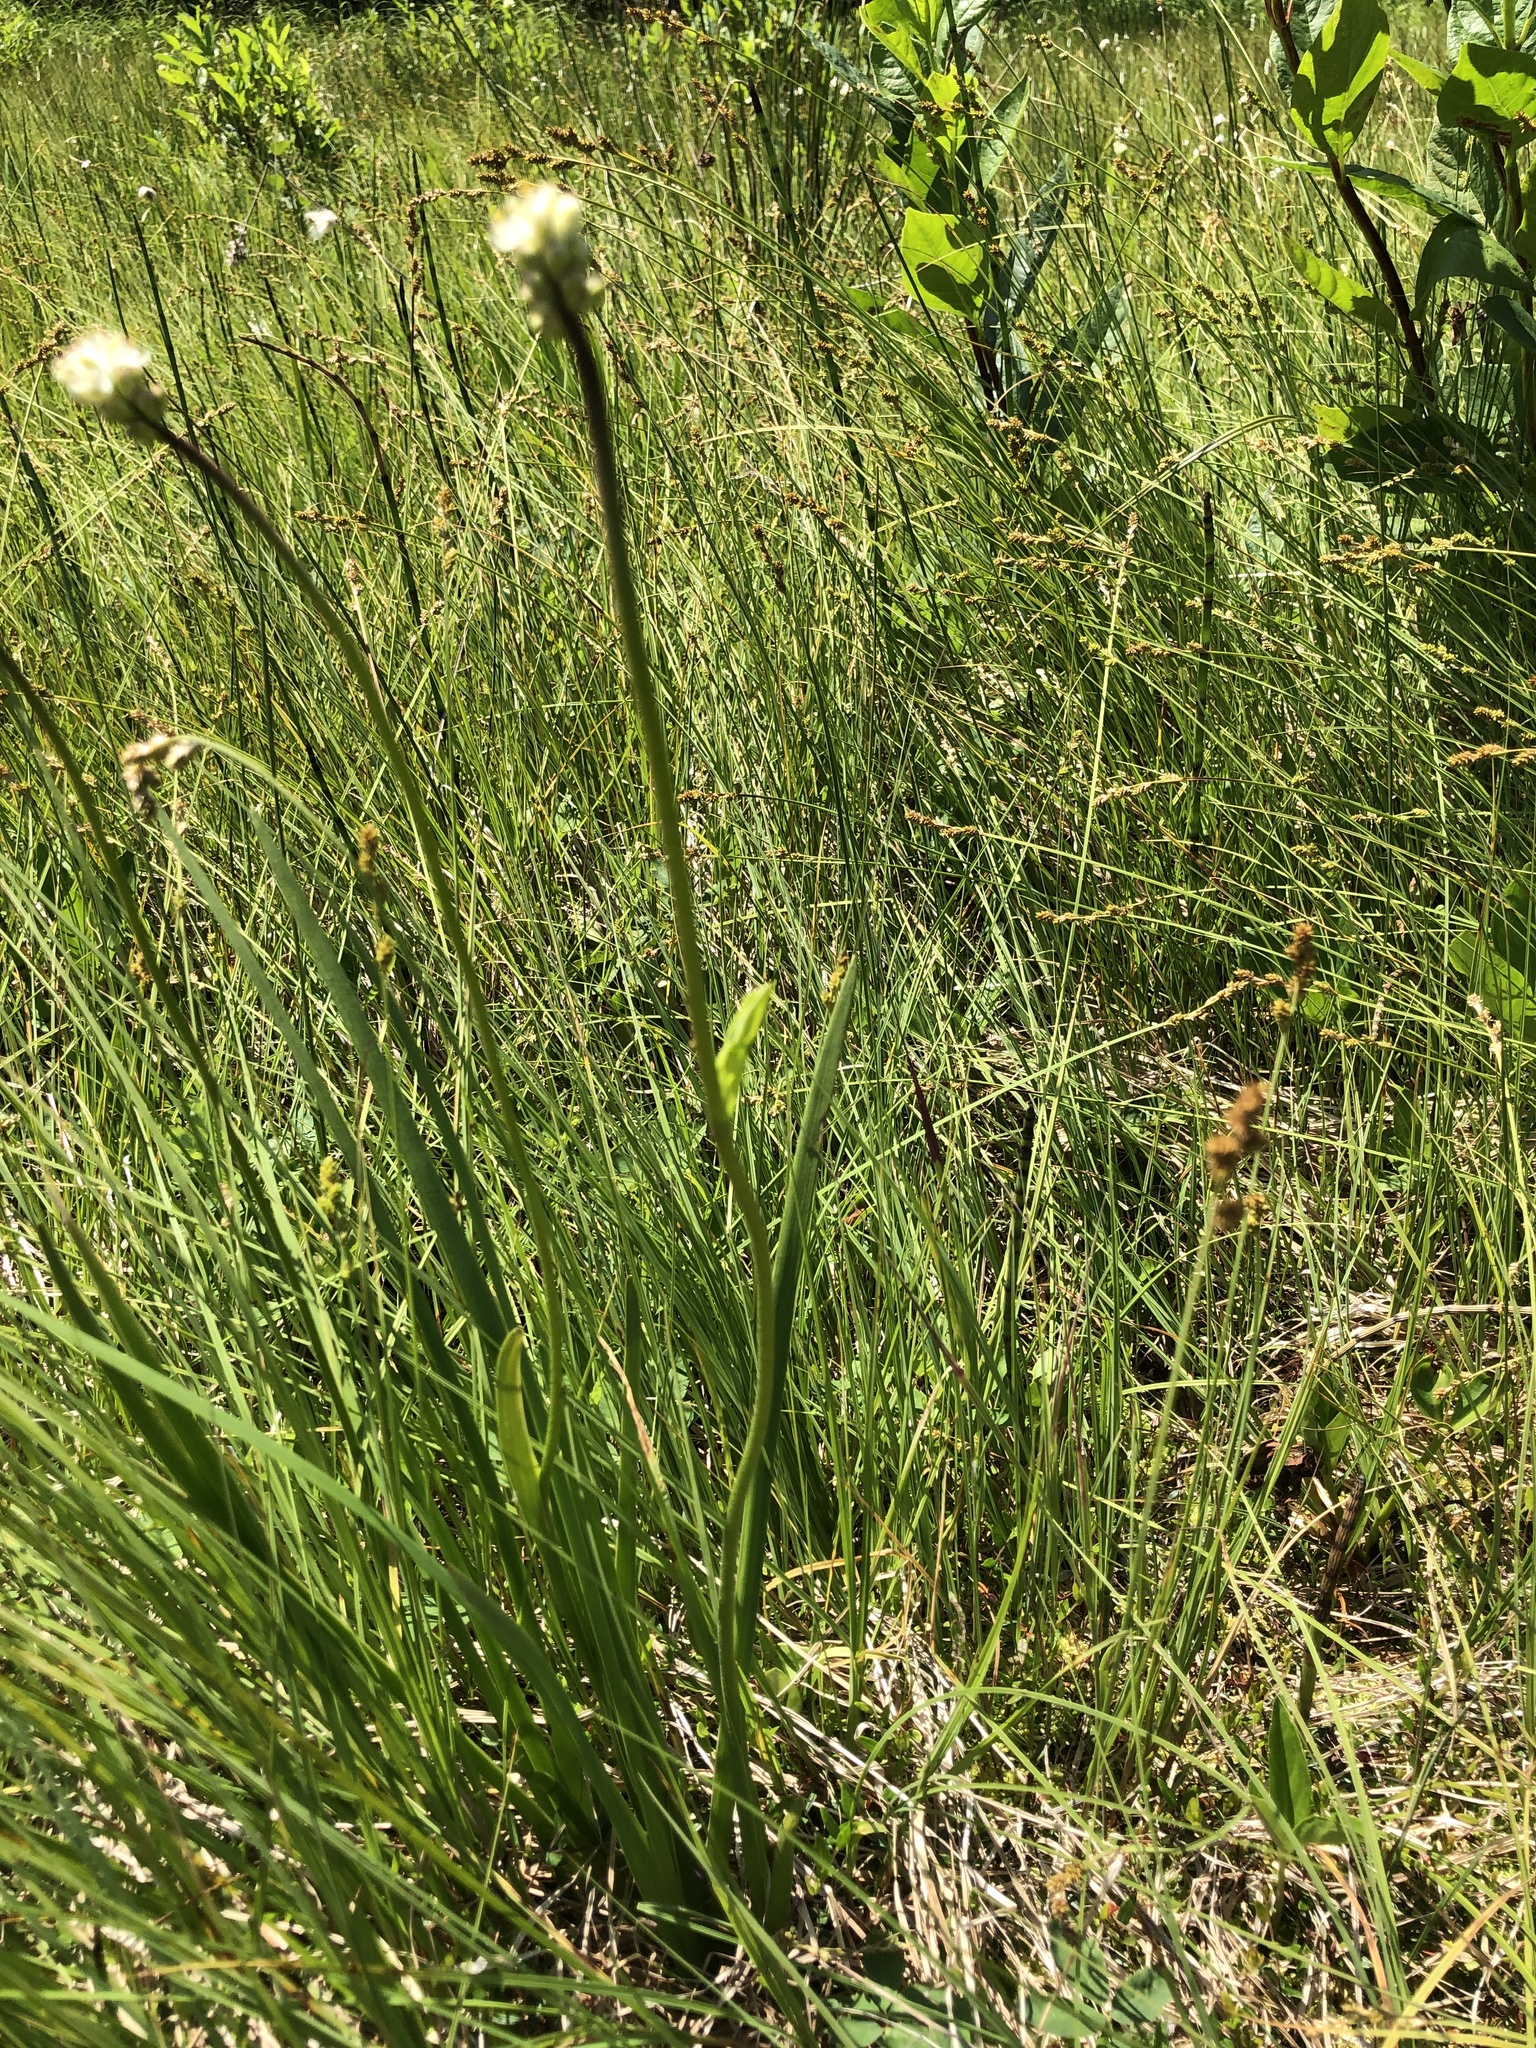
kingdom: Plantae
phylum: Tracheophyta
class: Liliopsida
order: Alismatales
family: Tofieldiaceae
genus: Triantha
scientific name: Triantha occidentalis
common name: Western false asphodel
